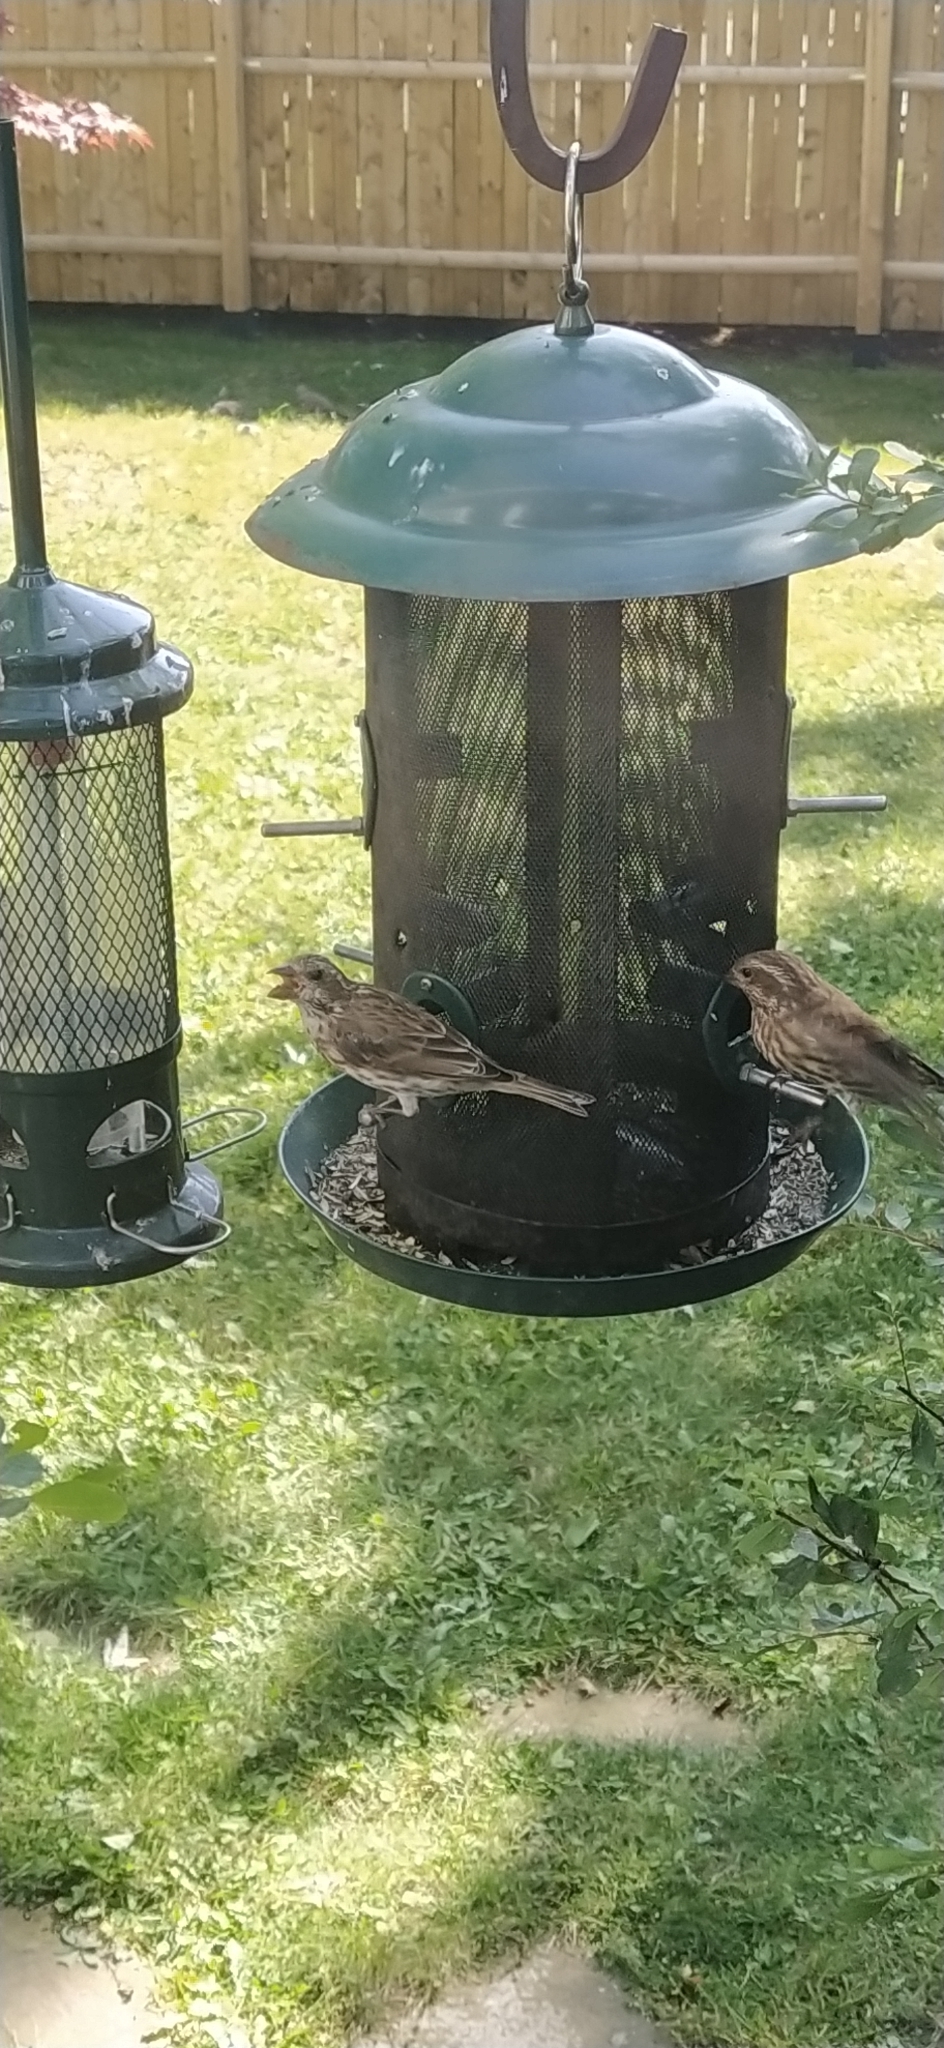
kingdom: Animalia
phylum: Chordata
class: Aves
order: Passeriformes
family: Fringillidae
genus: Haemorhous
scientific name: Haemorhous purpureus
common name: Purple finch
